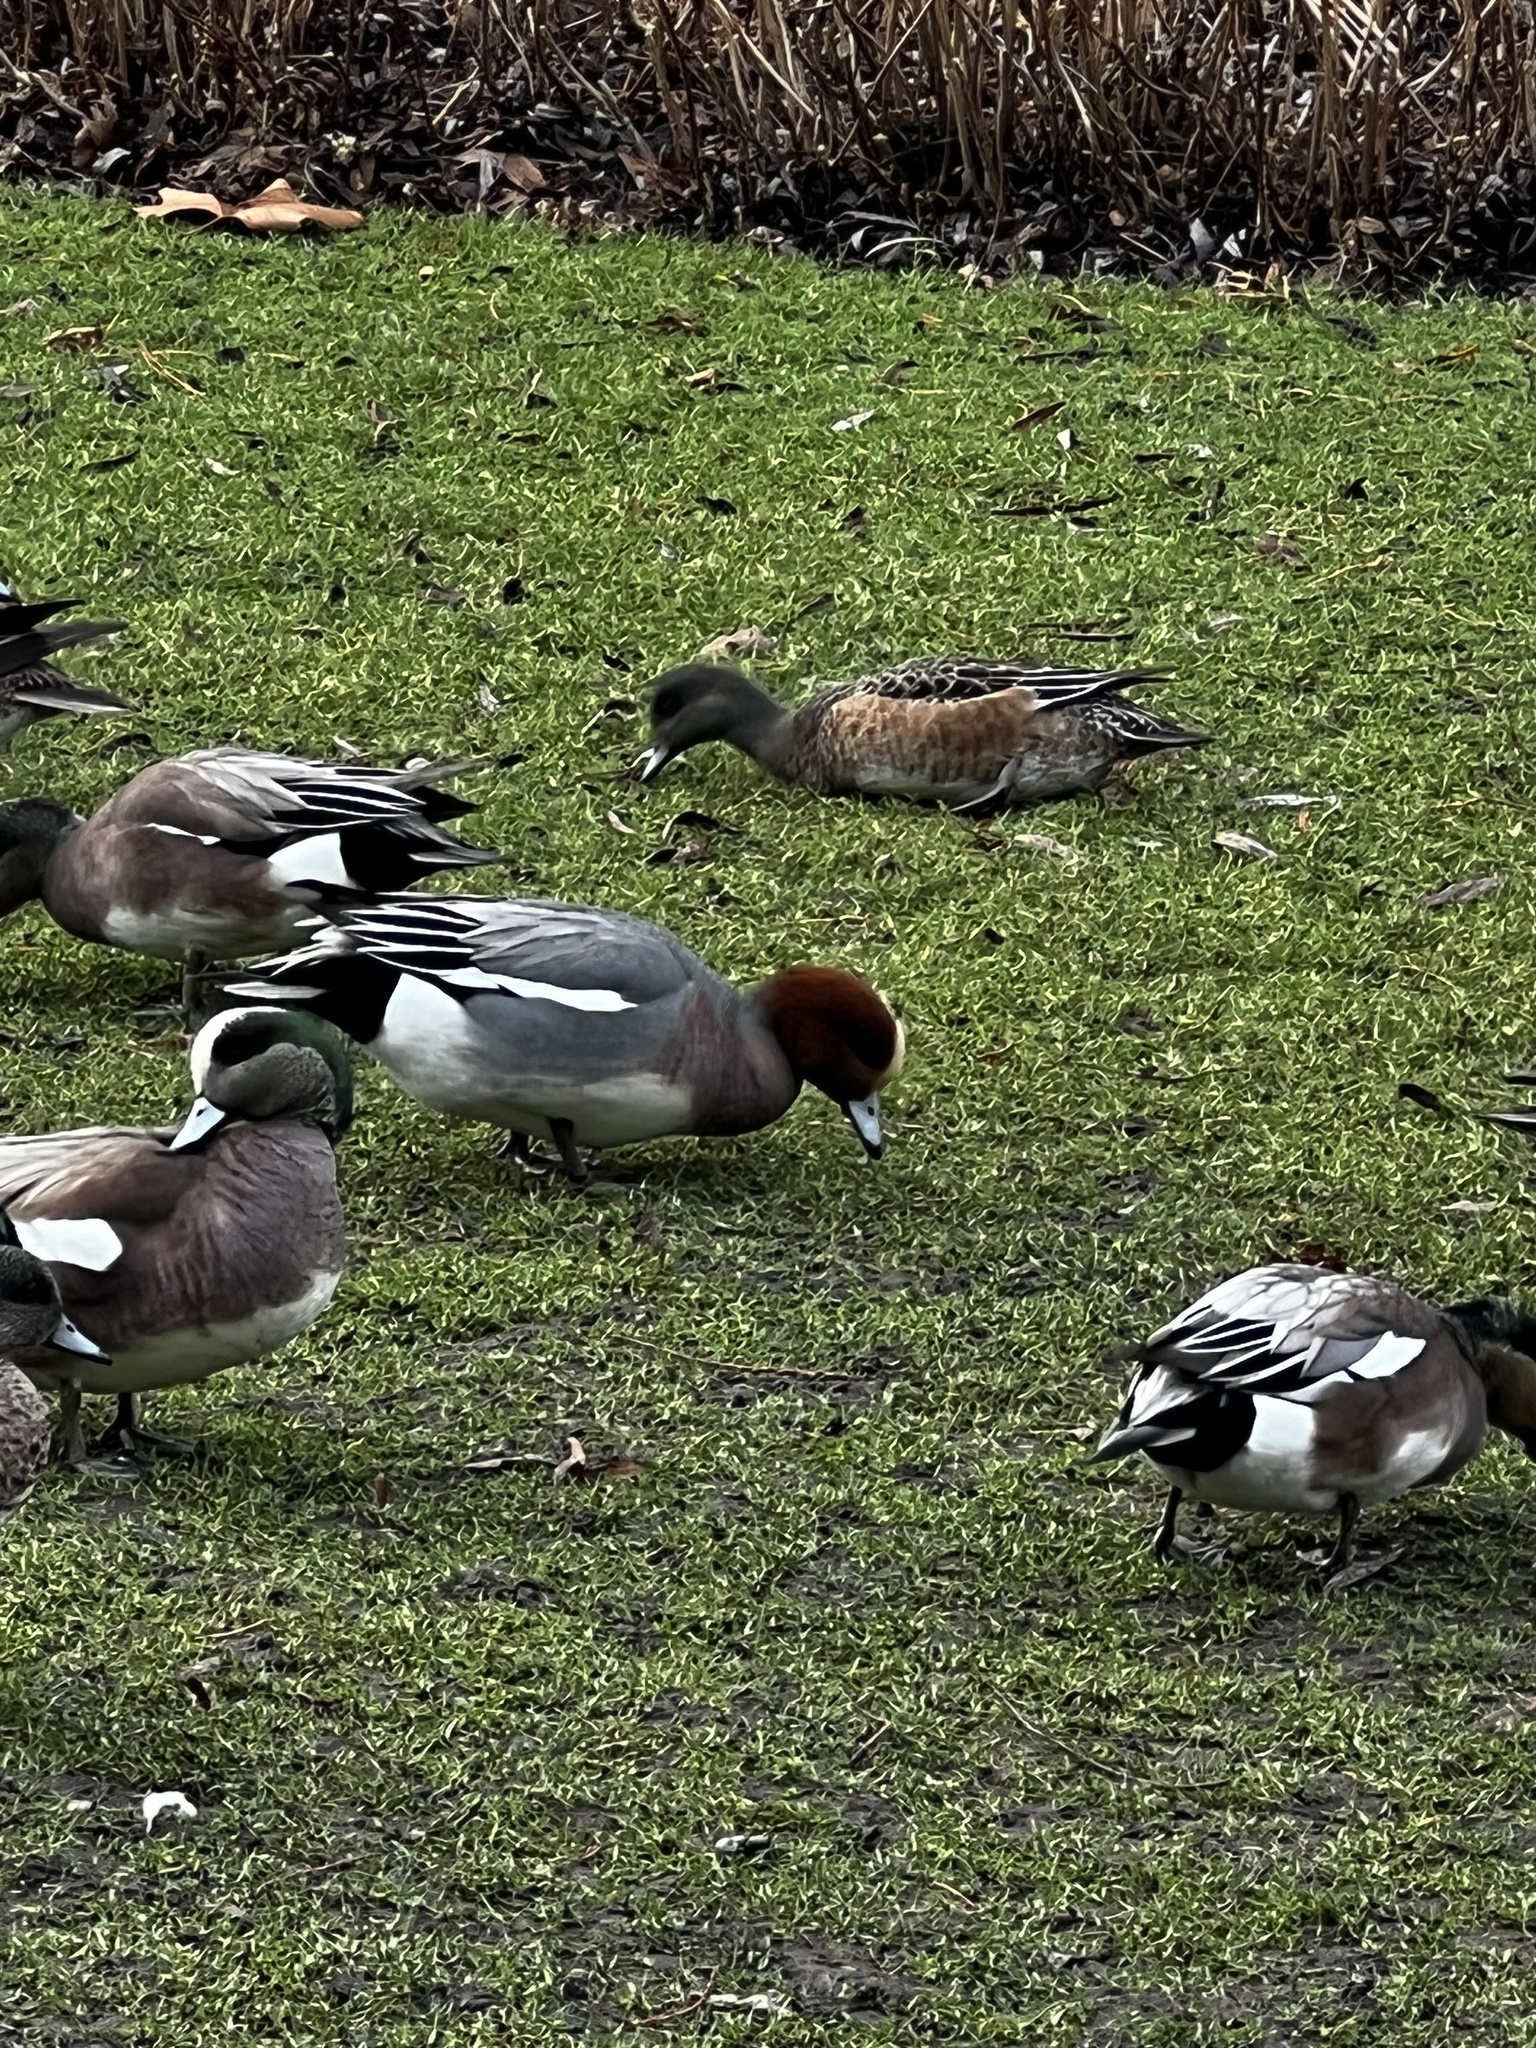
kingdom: Animalia
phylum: Chordata
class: Aves
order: Anseriformes
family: Anatidae
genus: Mareca
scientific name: Mareca penelope
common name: Eurasian wigeon
